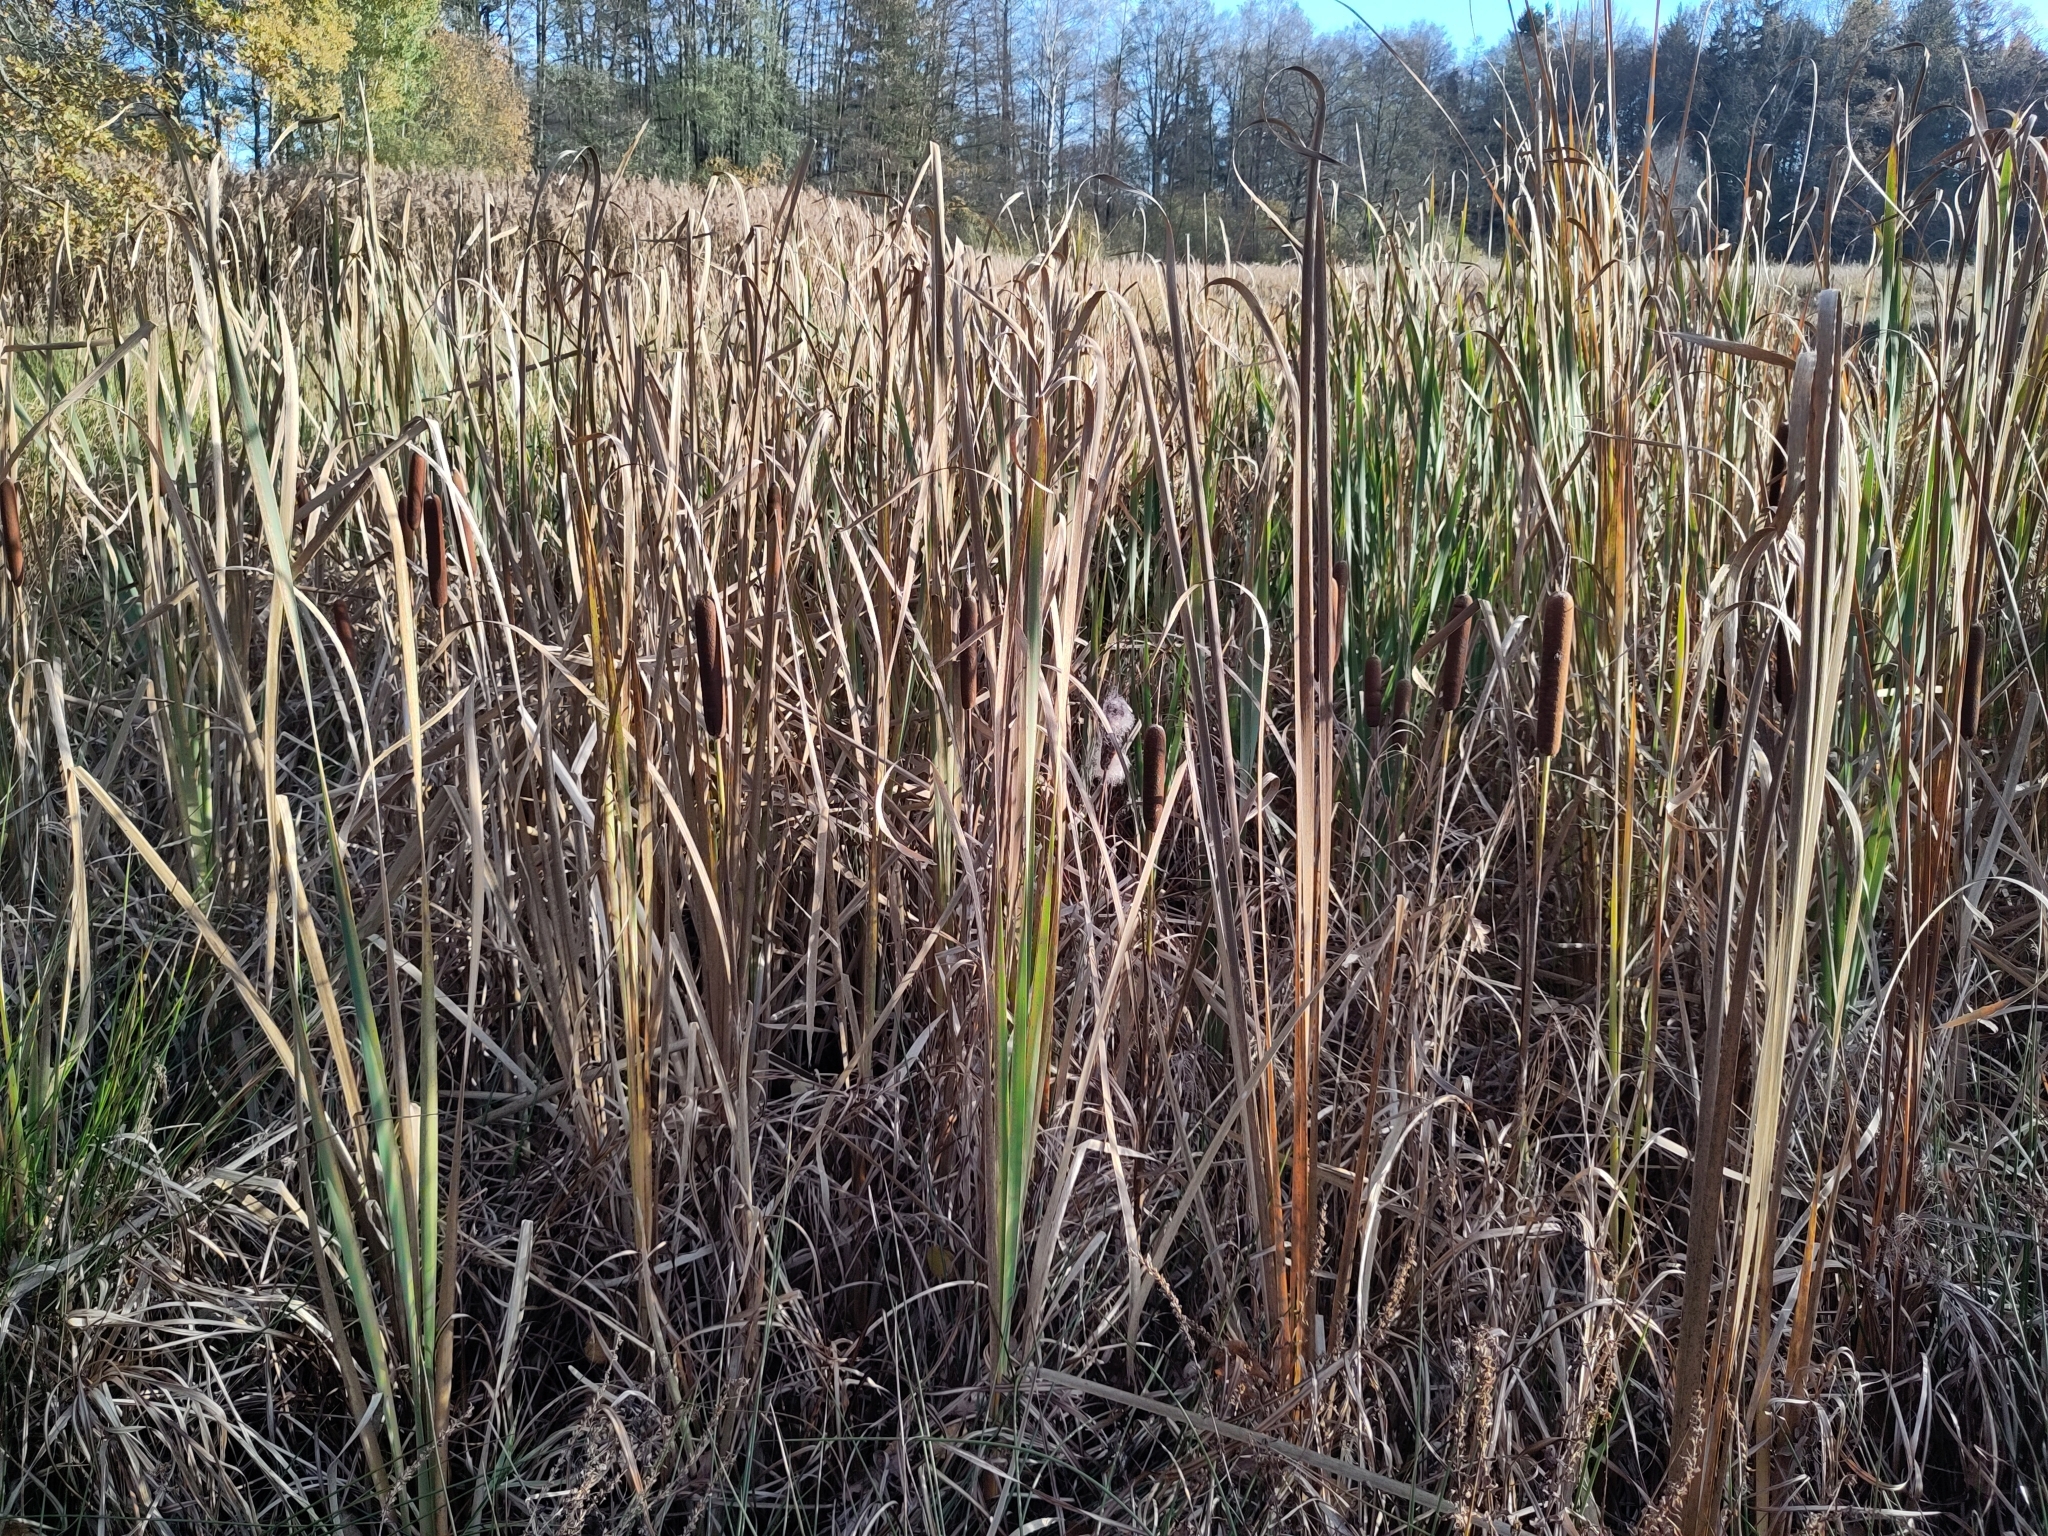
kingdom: Plantae
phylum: Tracheophyta
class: Liliopsida
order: Poales
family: Typhaceae
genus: Typha
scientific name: Typha latifolia
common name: Broadleaf cattail
